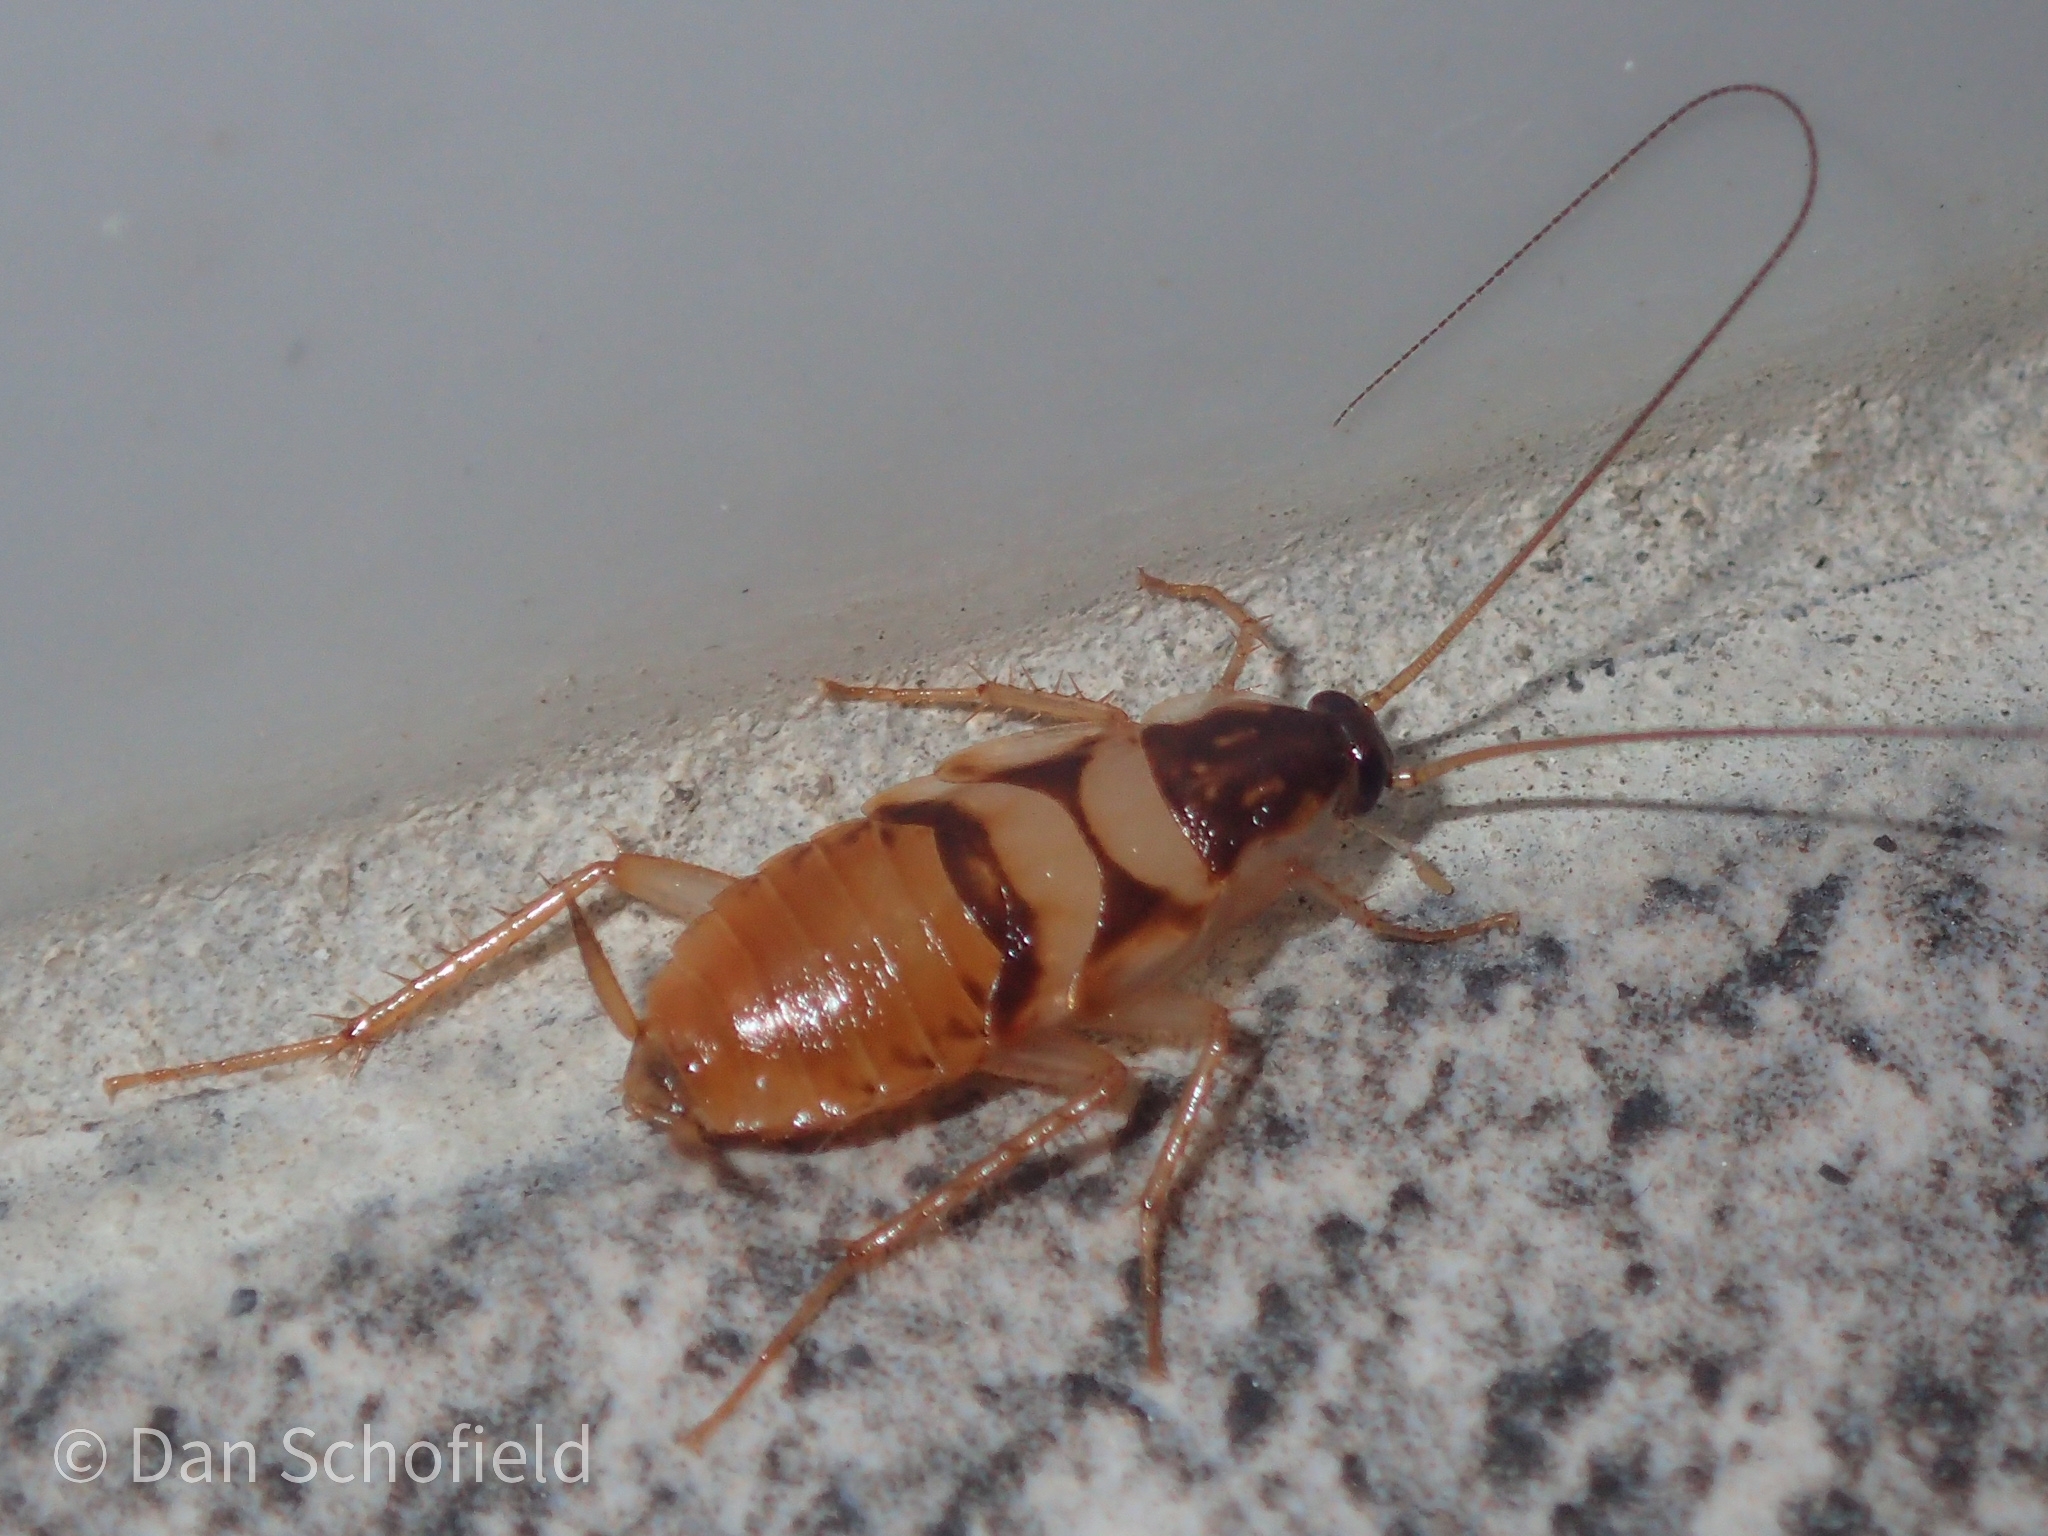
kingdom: Animalia
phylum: Arthropoda
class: Insecta
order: Blattodea
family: Ectobiidae
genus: Supella
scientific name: Supella longipalpa
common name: Brown-banded cockroach
